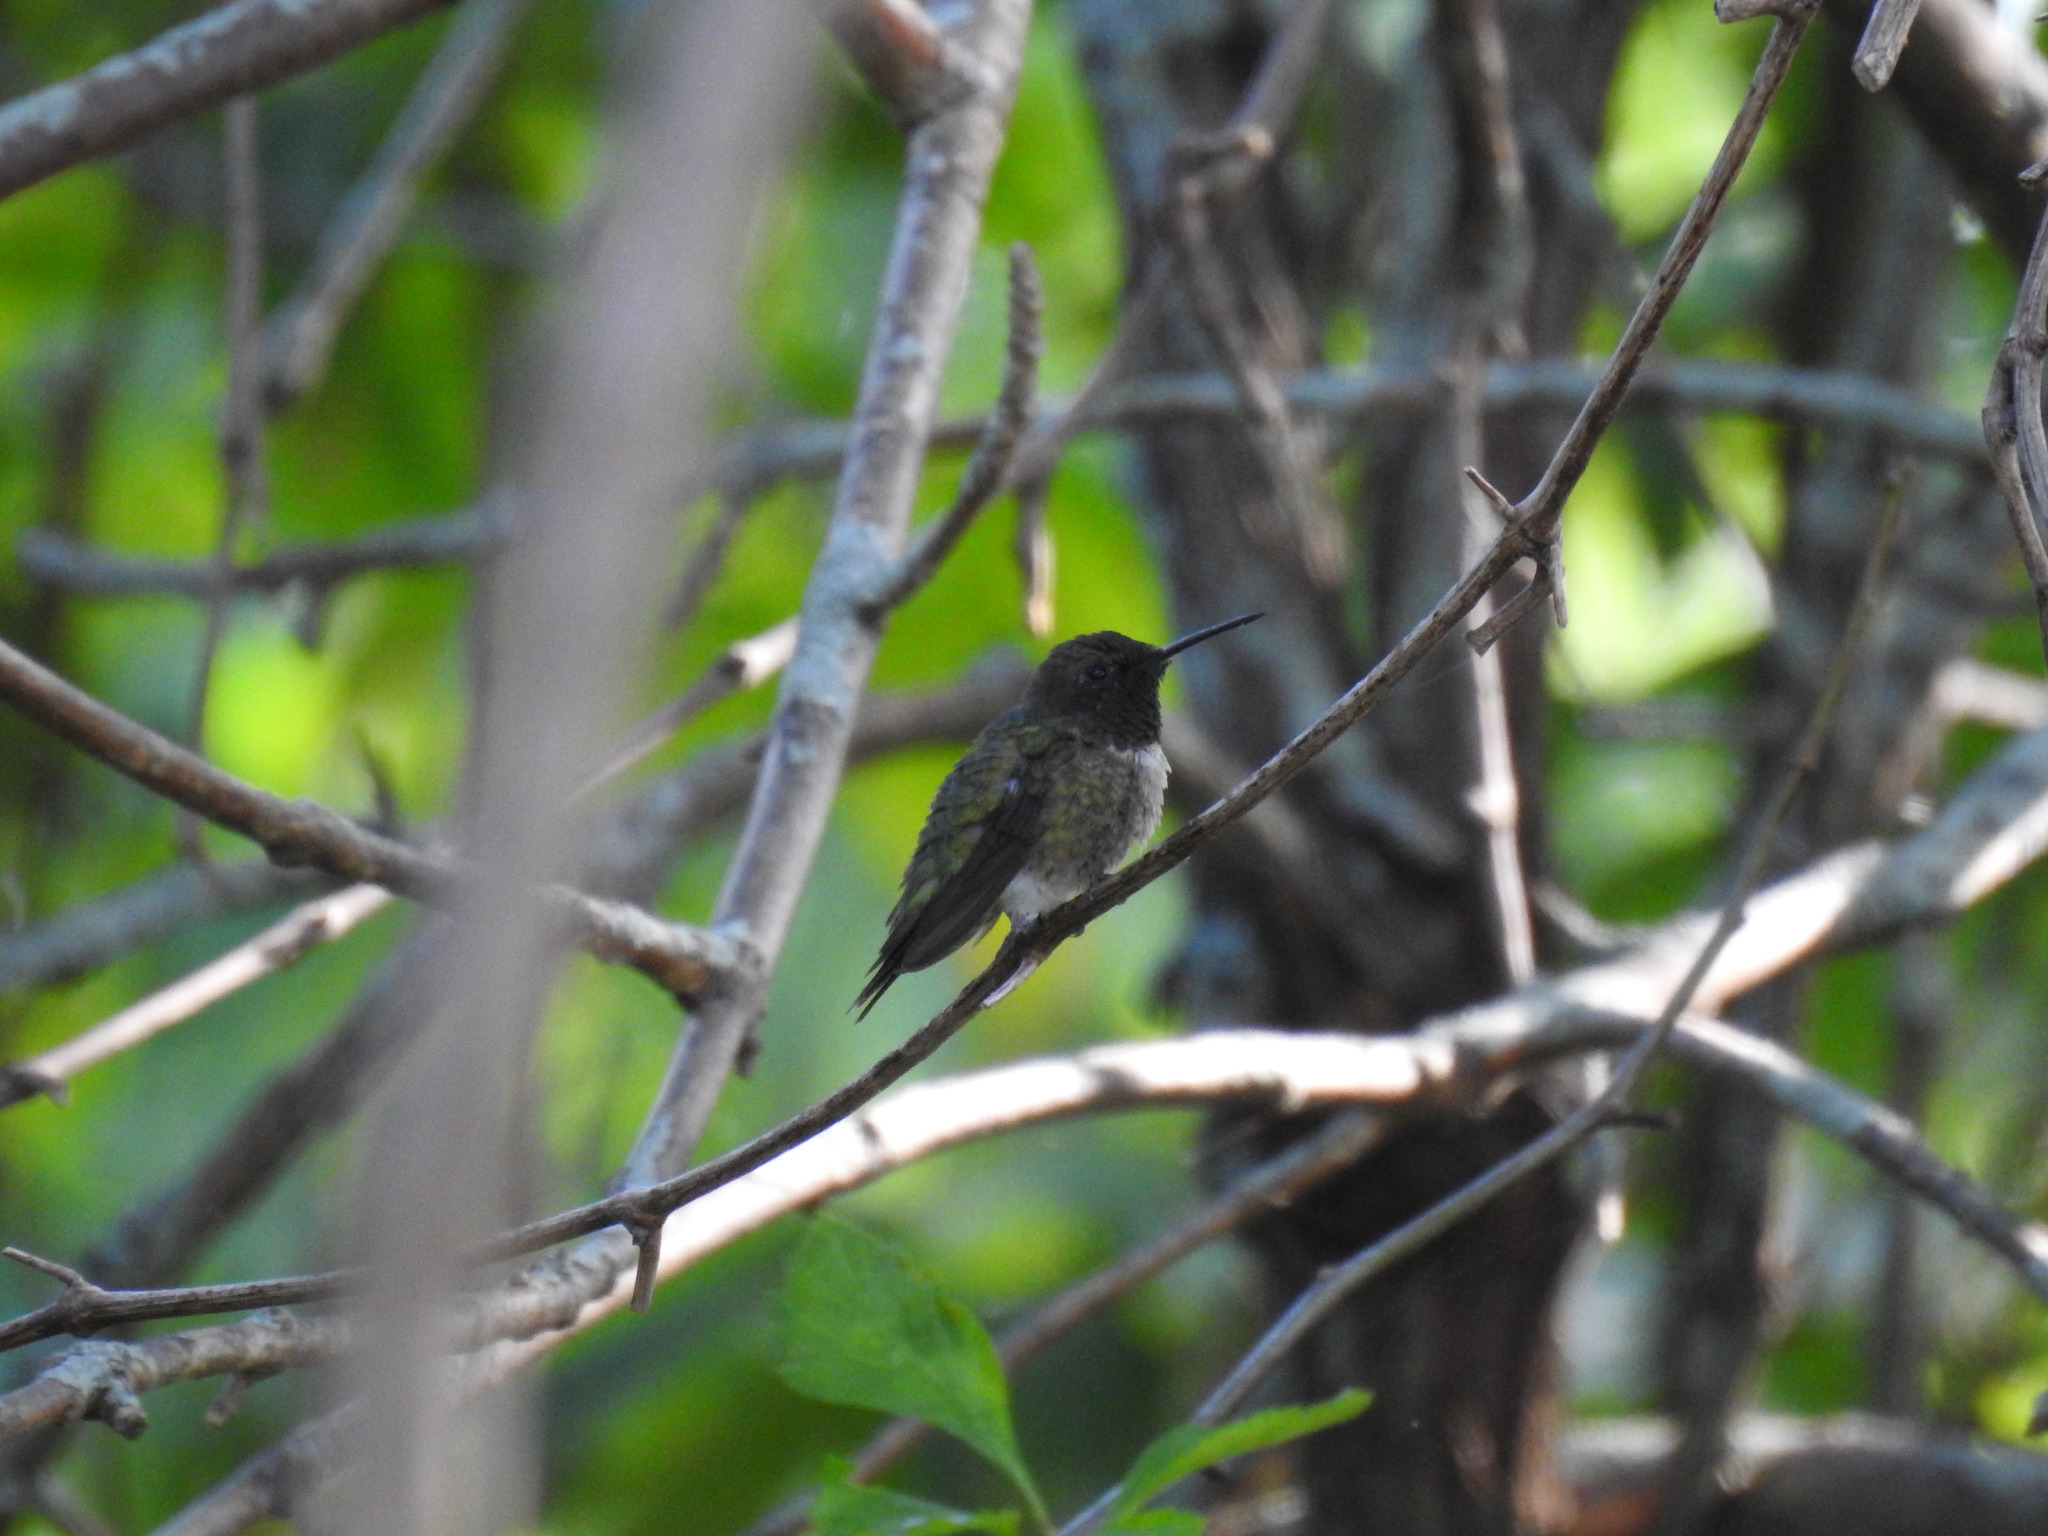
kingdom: Animalia
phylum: Chordata
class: Aves
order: Apodiformes
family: Trochilidae
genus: Archilochus
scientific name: Archilochus colubris
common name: Ruby-throated hummingbird
